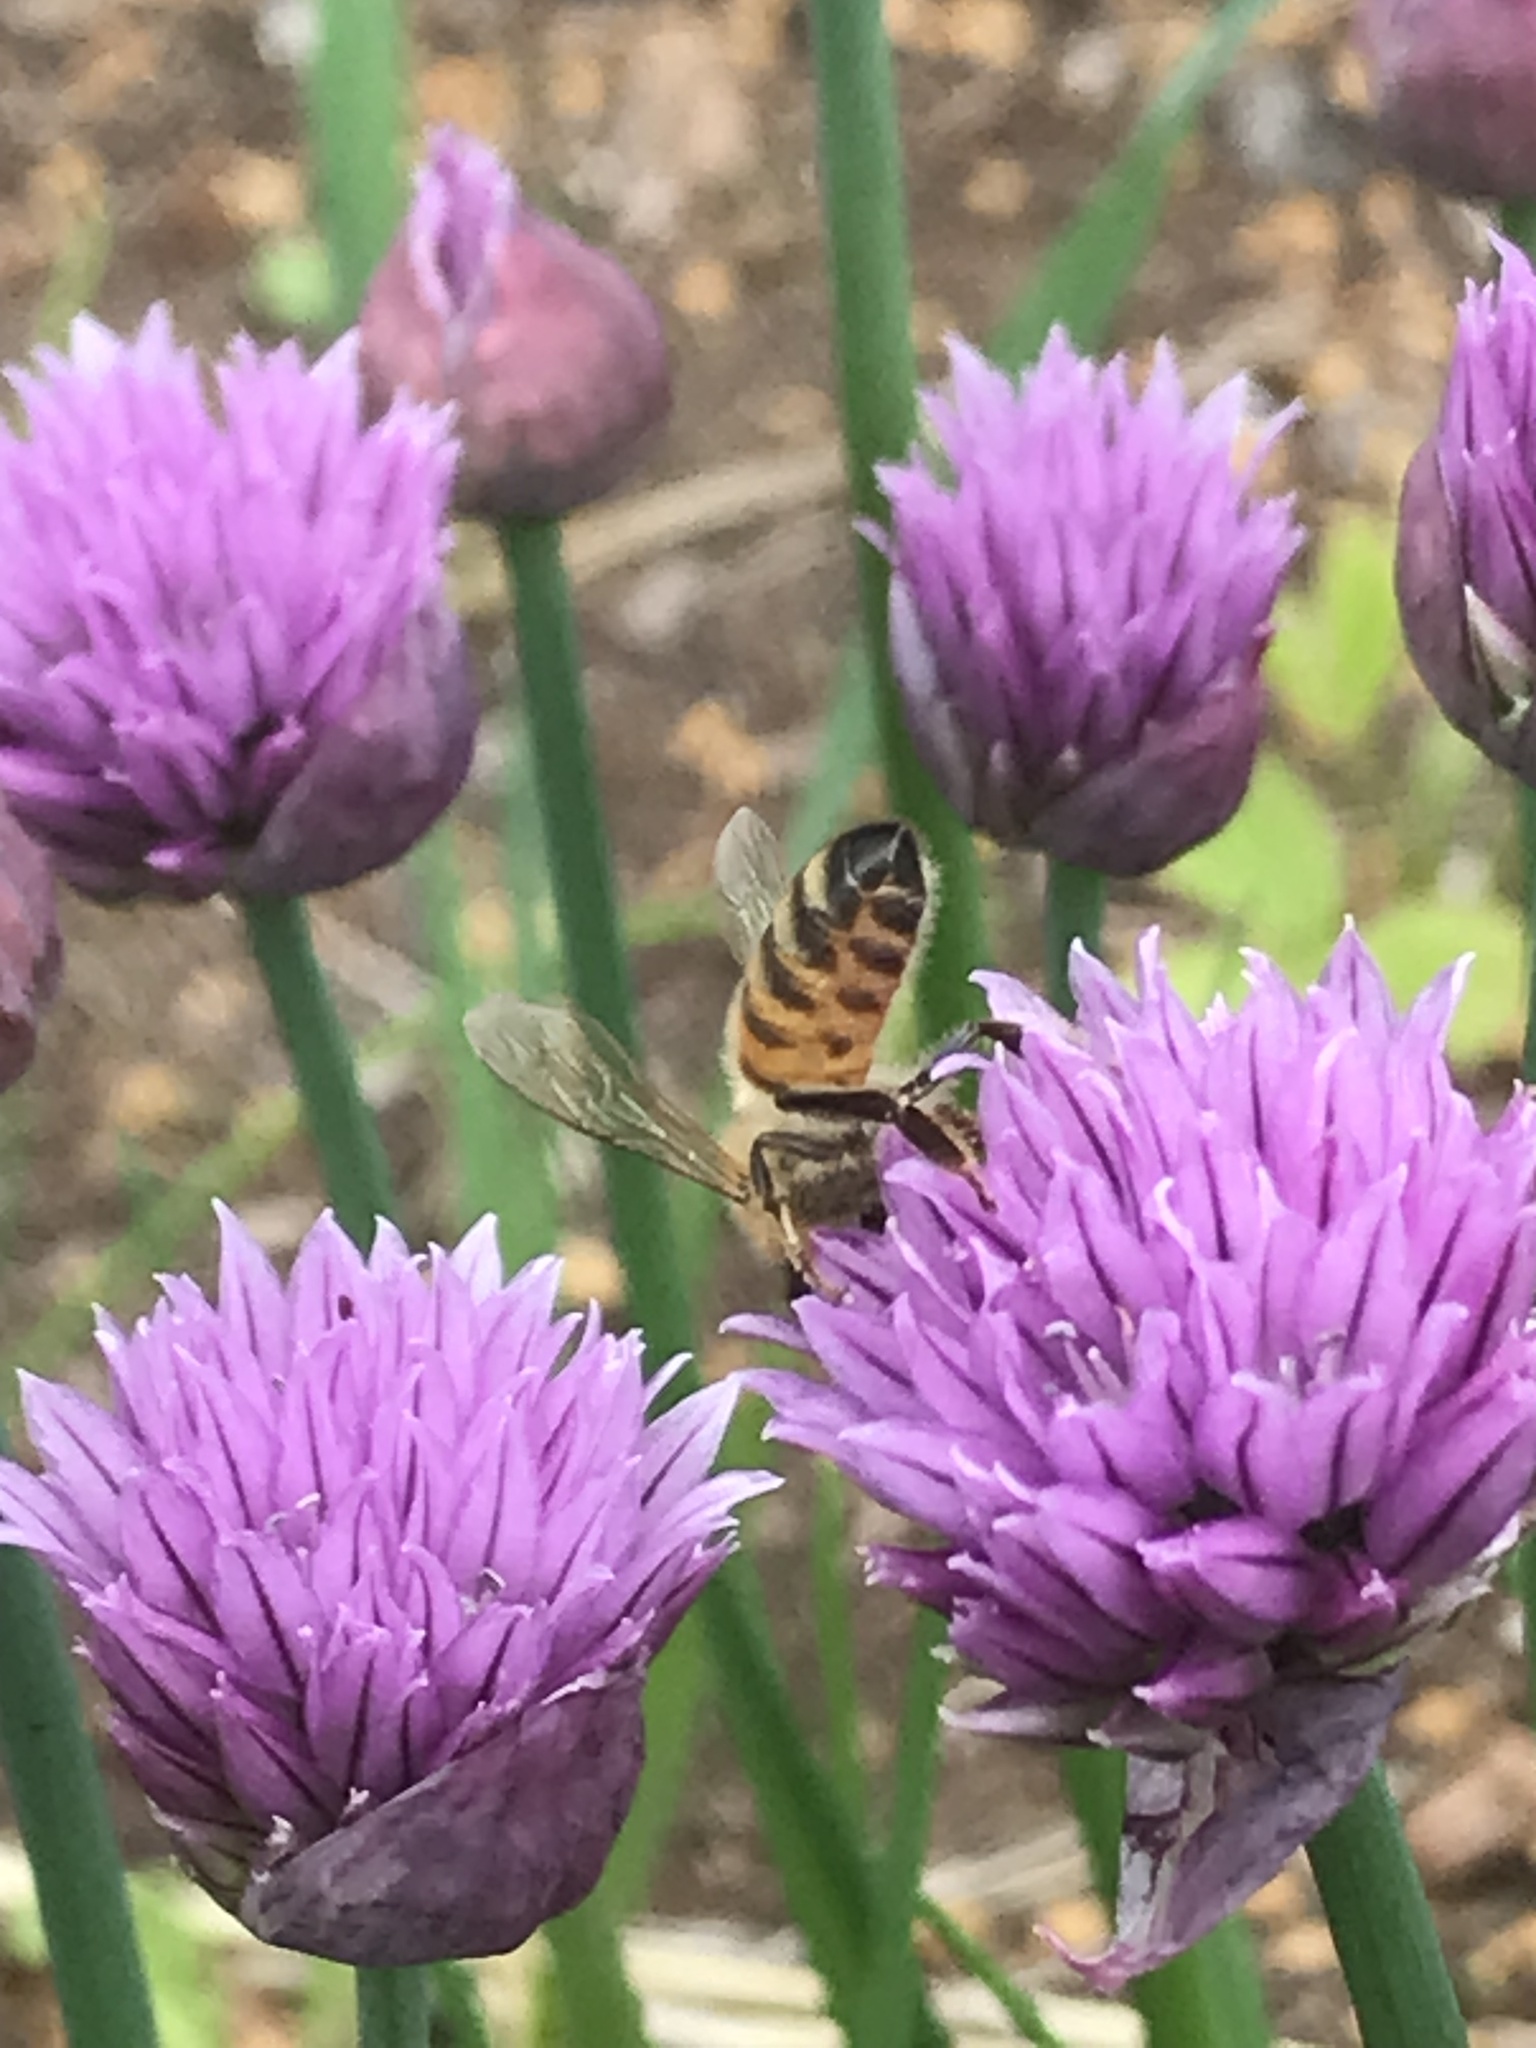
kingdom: Animalia
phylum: Arthropoda
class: Insecta
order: Hymenoptera
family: Apidae
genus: Apis
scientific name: Apis mellifera
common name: Honey bee
